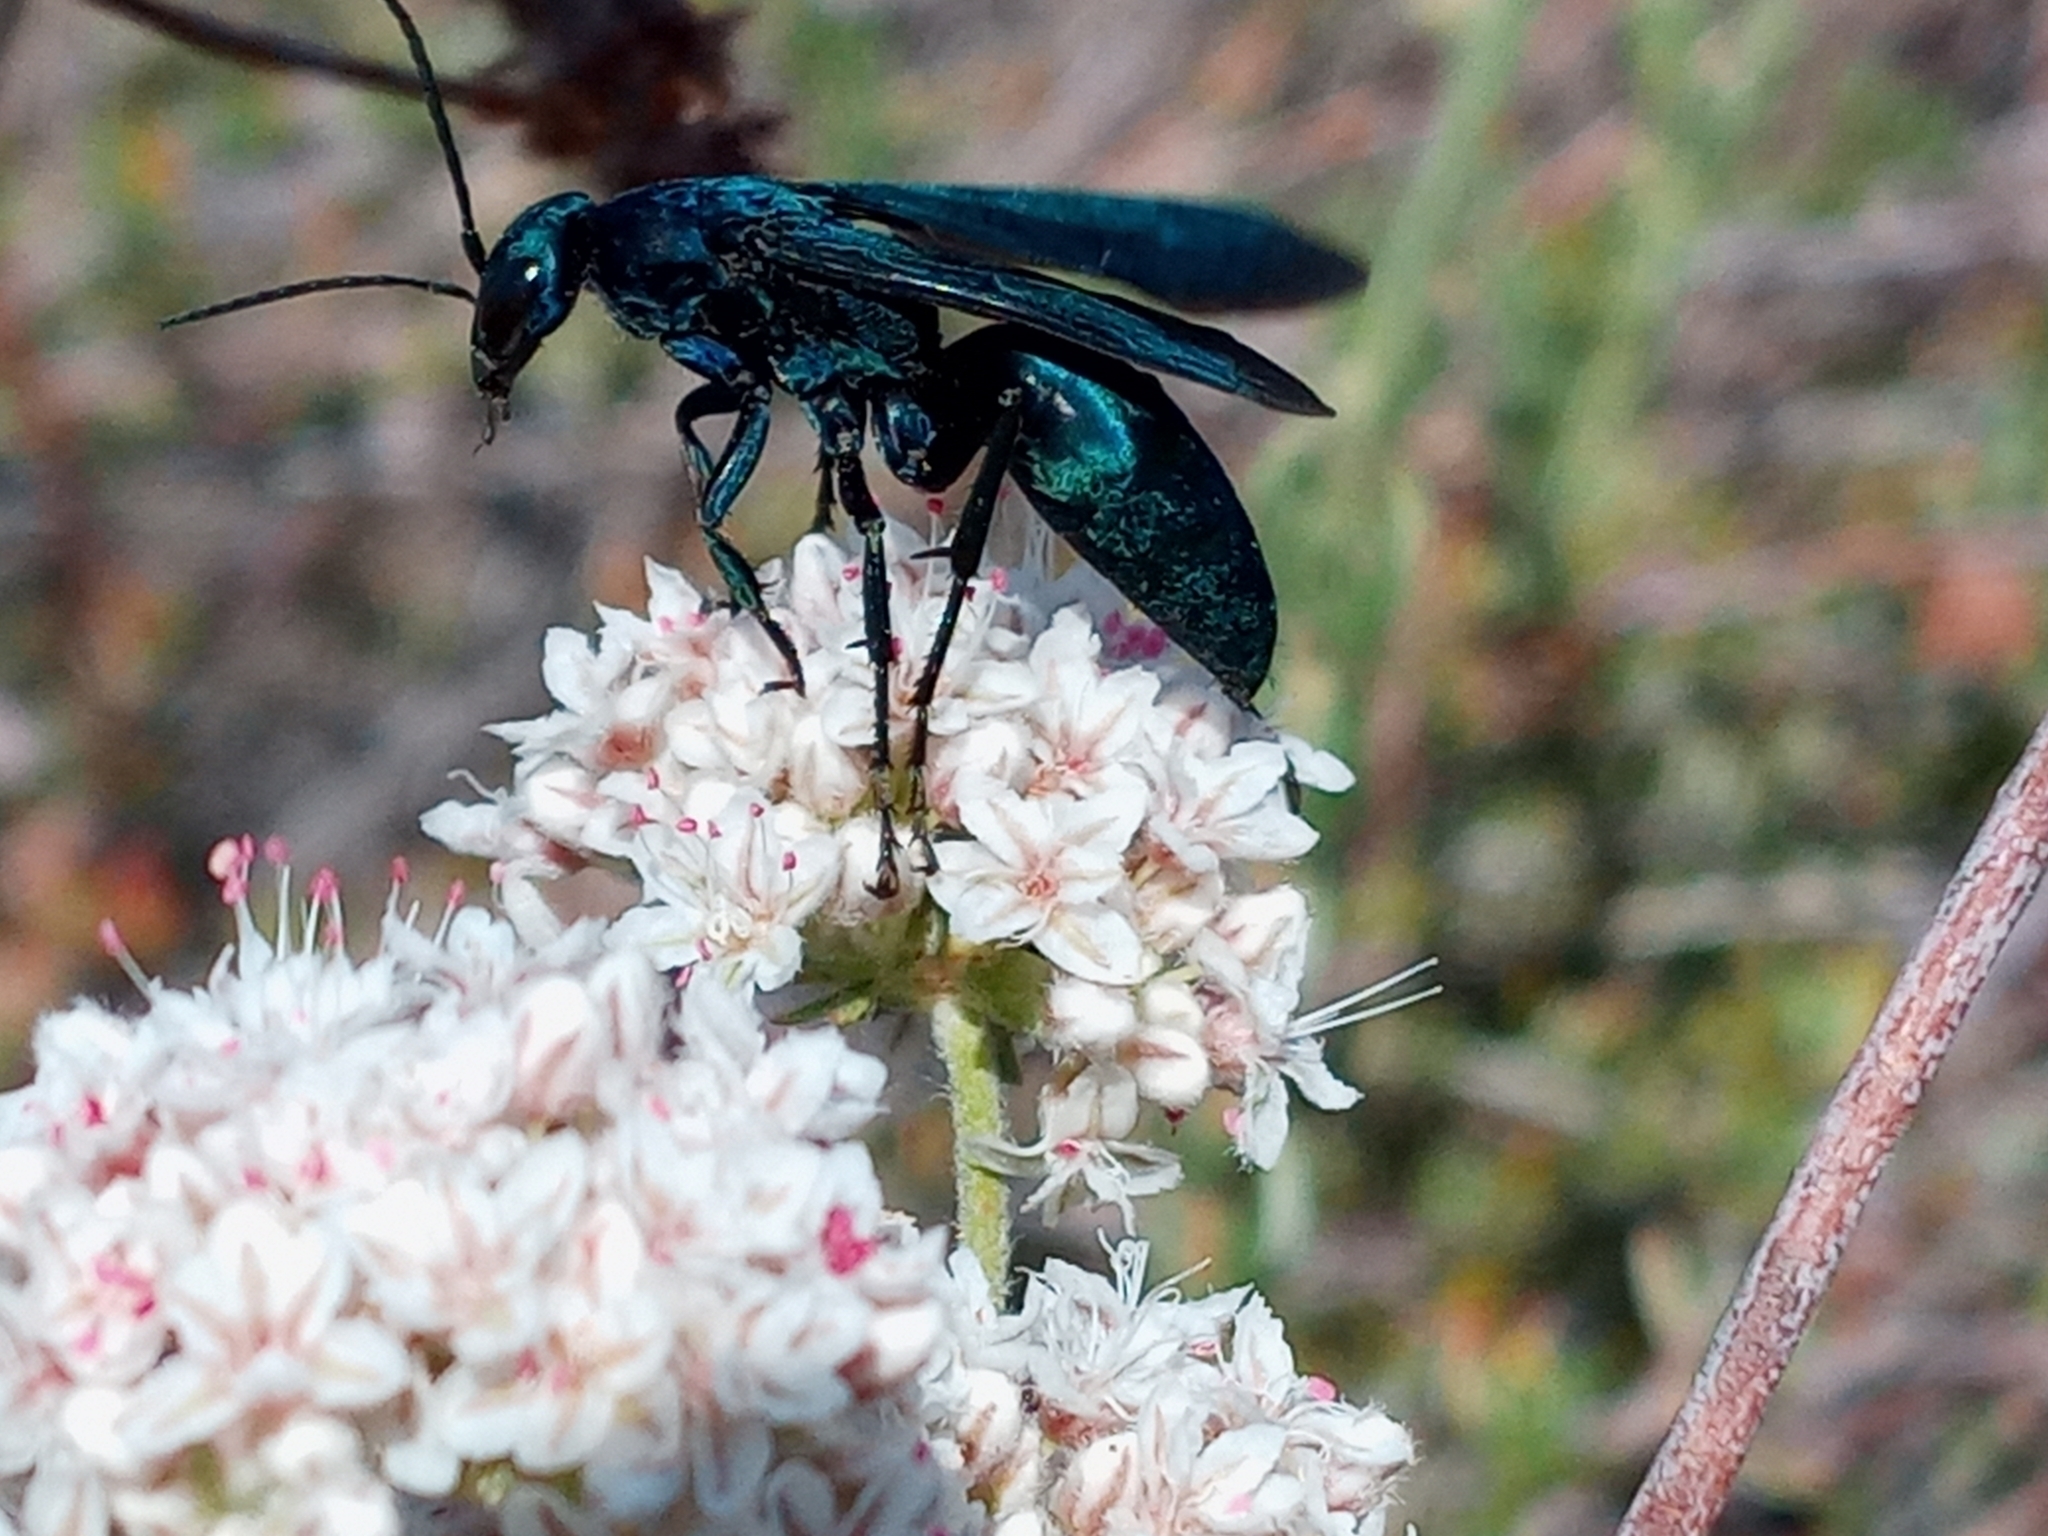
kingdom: Animalia
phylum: Arthropoda
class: Insecta
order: Hymenoptera
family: Pompilidae
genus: Psorthaspis
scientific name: Psorthaspis planata
